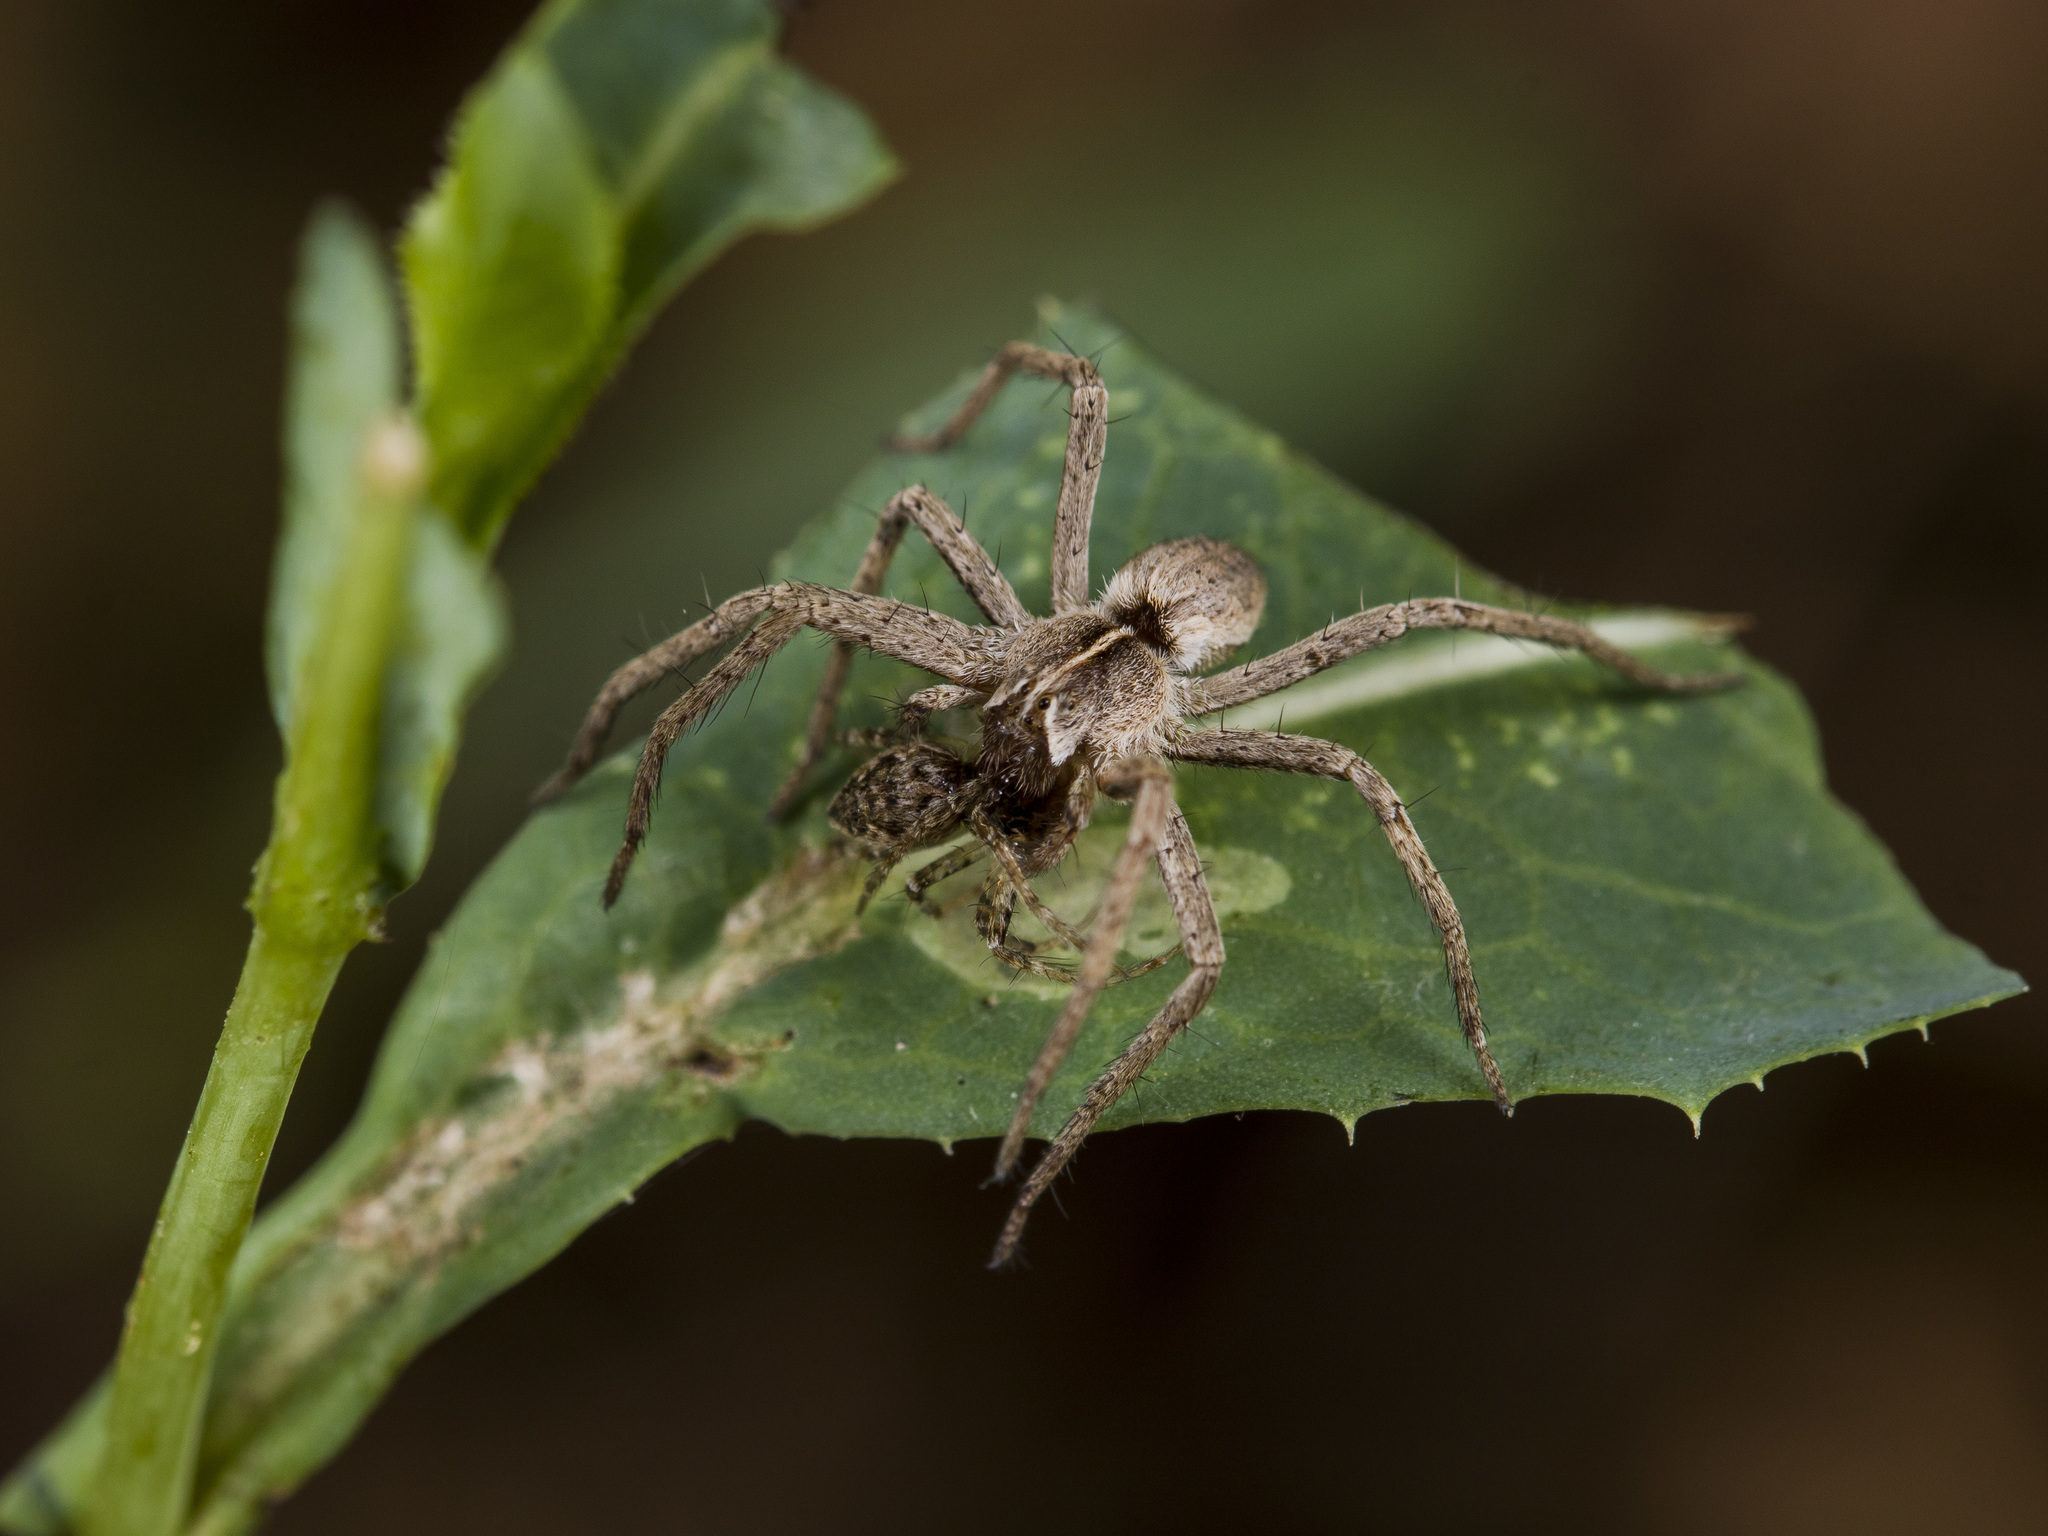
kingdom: Animalia
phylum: Arthropoda
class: Arachnida
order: Araneae
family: Pisauridae
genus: Pisaura
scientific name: Pisaura mirabilis
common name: Tent spider
